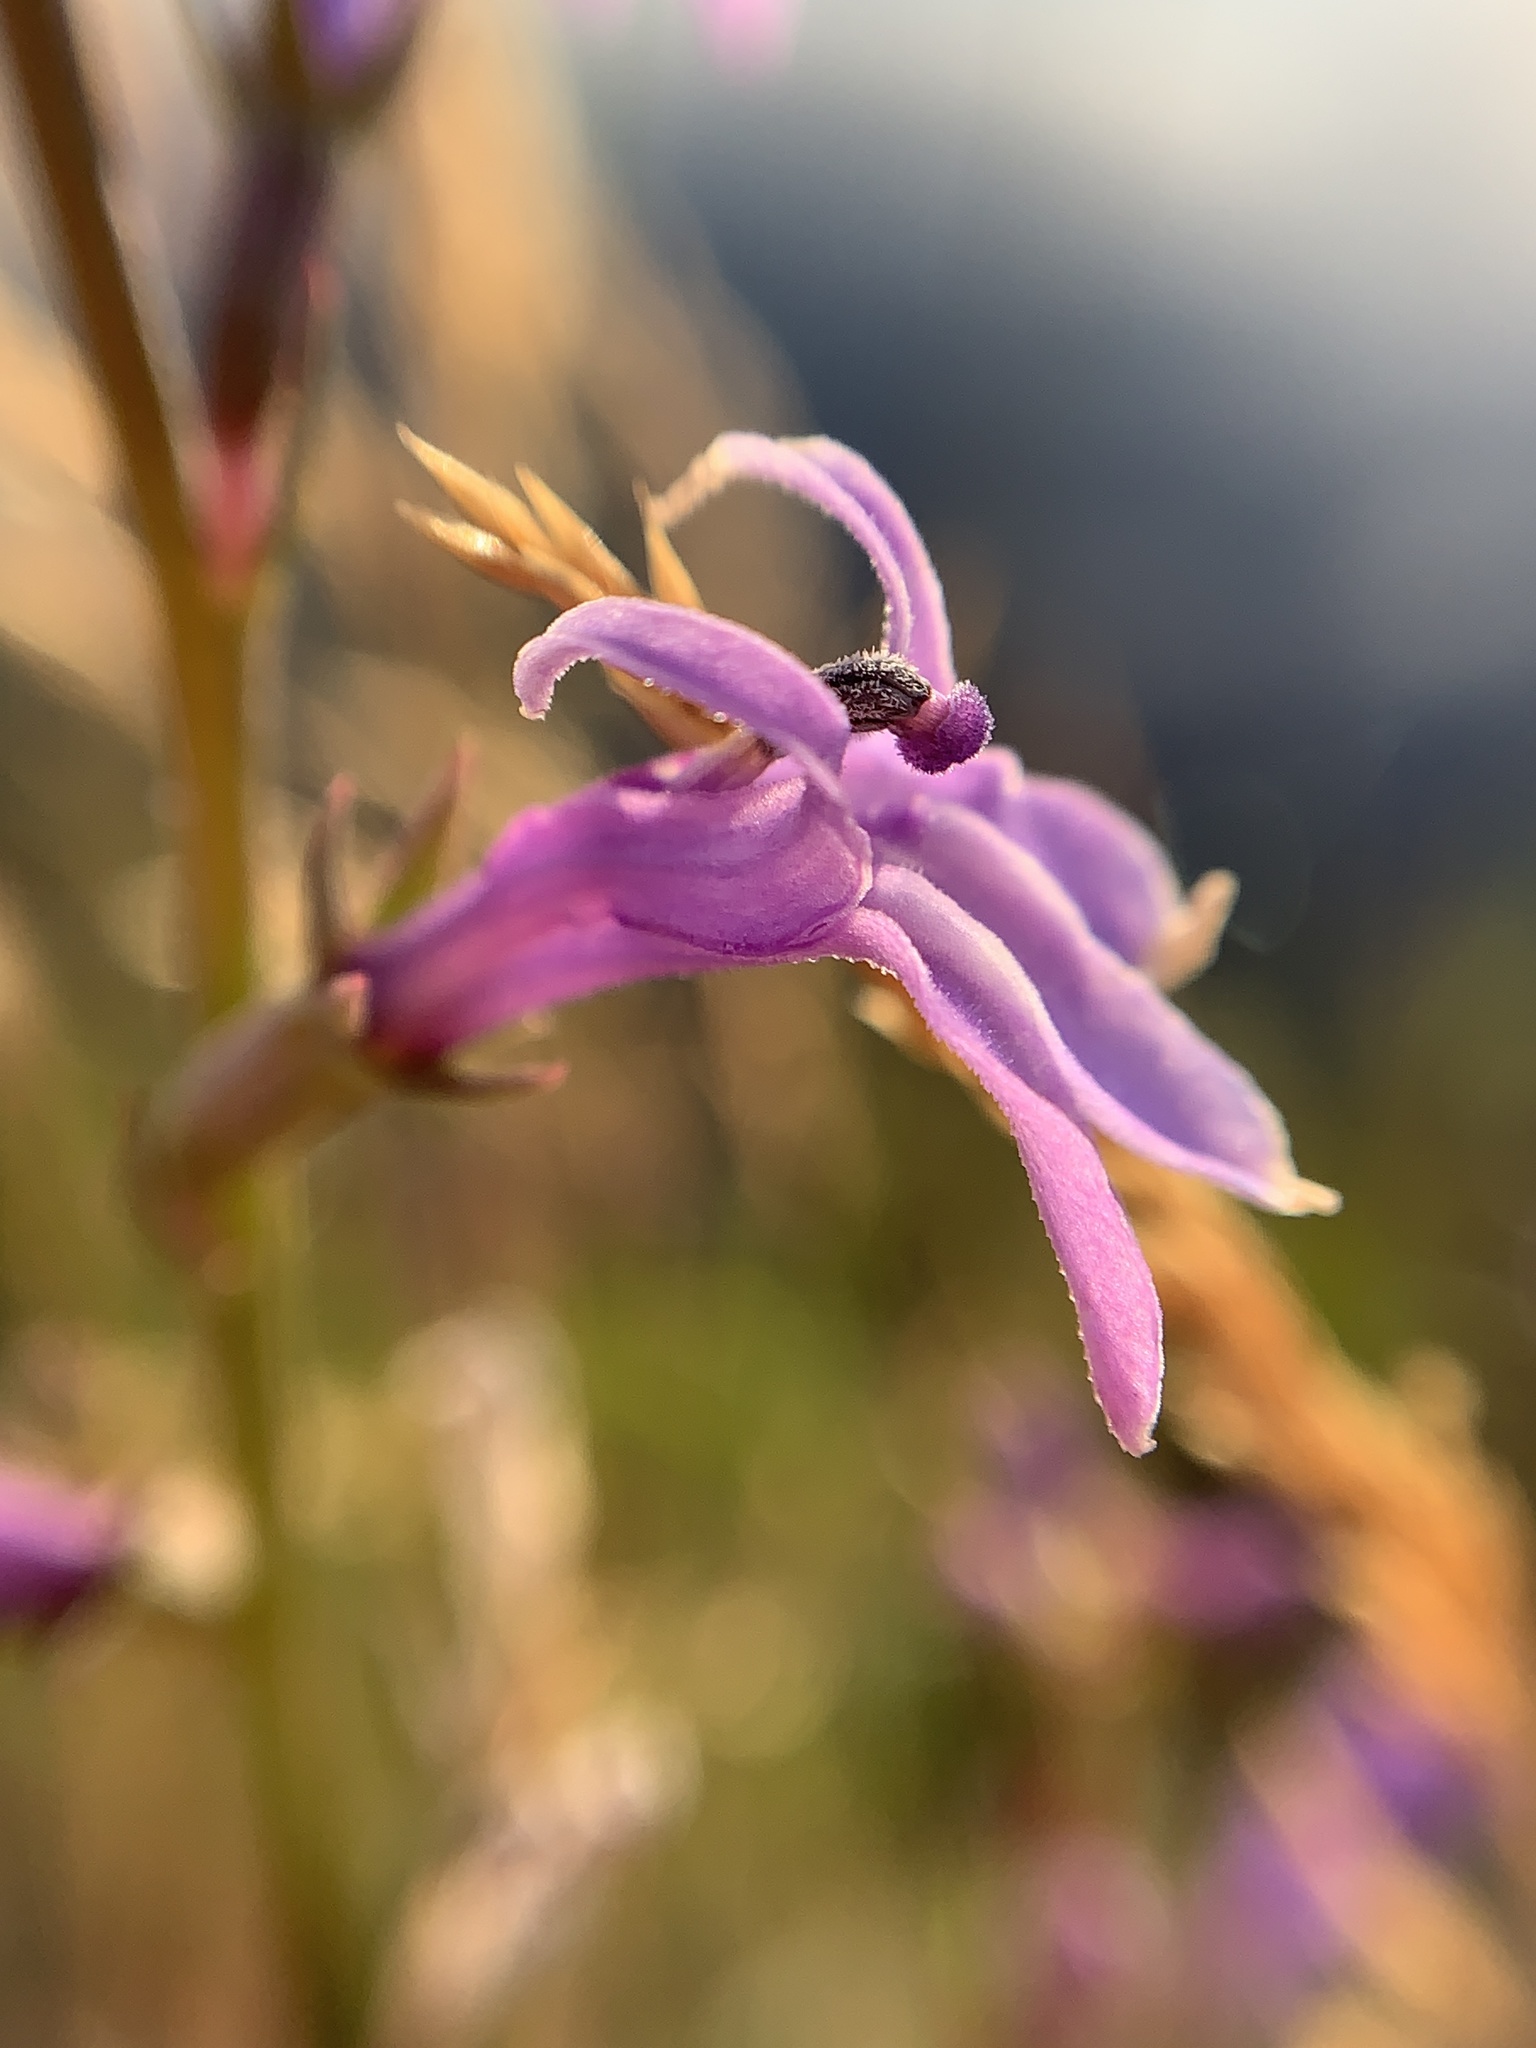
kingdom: Plantae
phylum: Tracheophyta
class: Magnoliopsida
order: Asterales
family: Campanulaceae
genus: Lobelia
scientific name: Lobelia urens
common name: Heath lobelia
